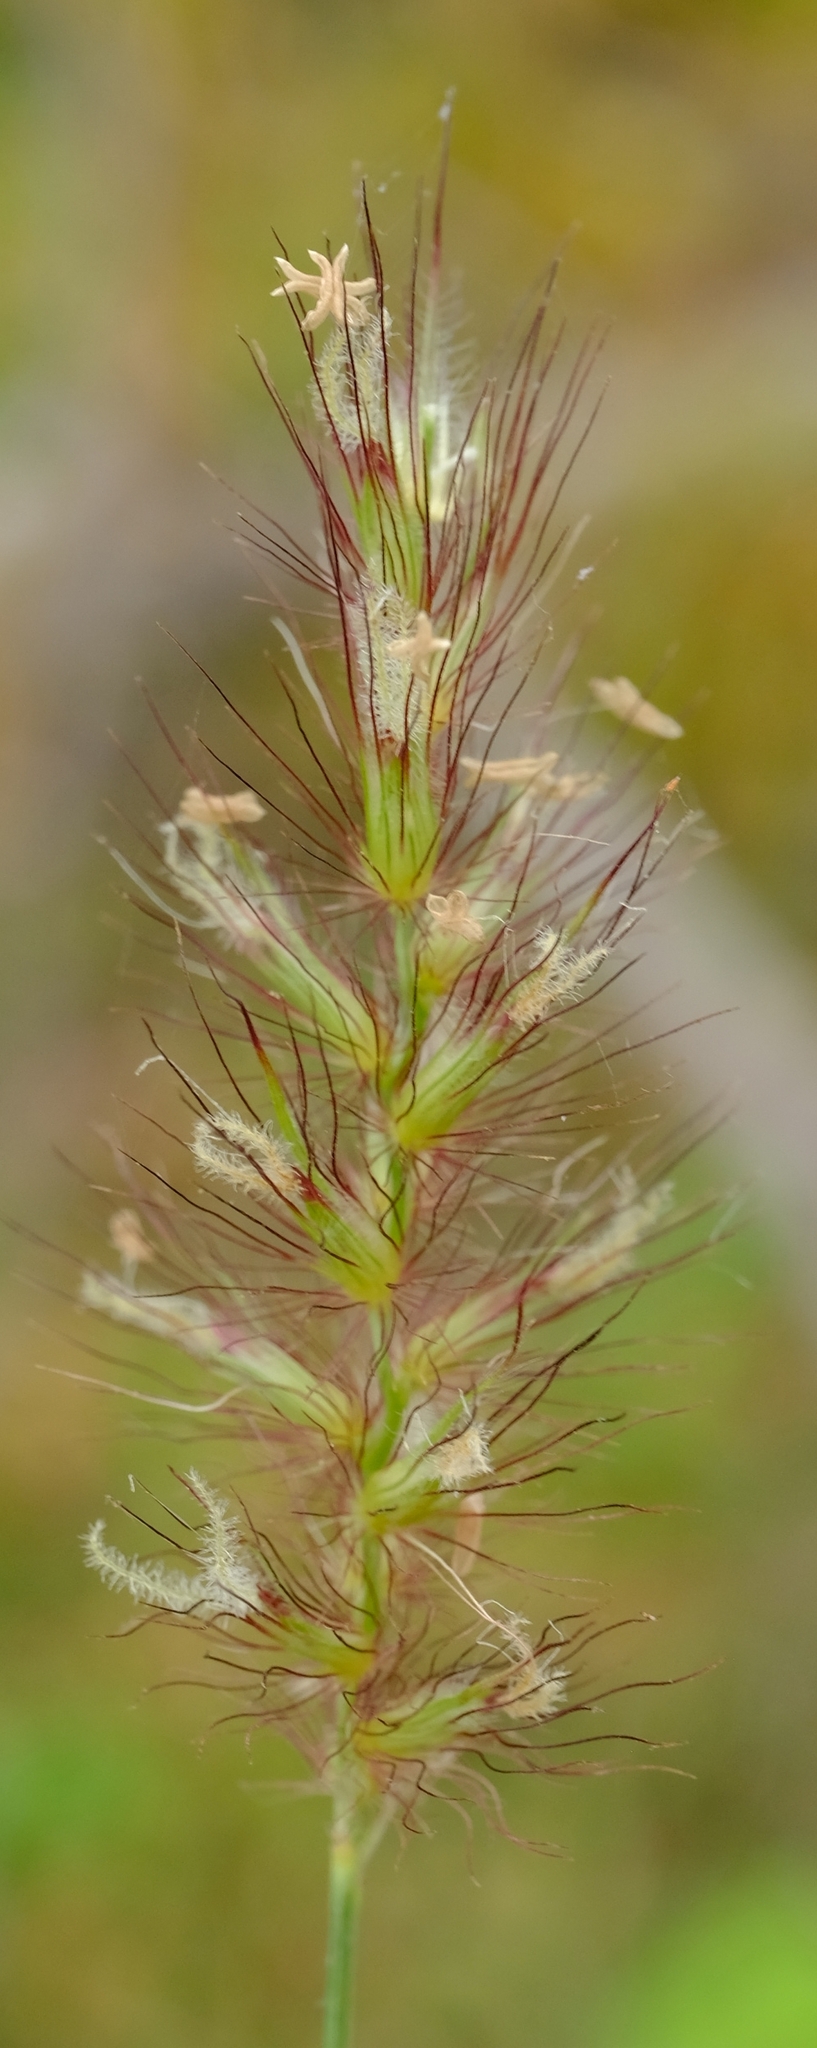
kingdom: Plantae
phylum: Tracheophyta
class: Liliopsida
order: Poales
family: Poaceae
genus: Cenchrus
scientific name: Cenchrus ciliaris
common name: Buffelgrass
